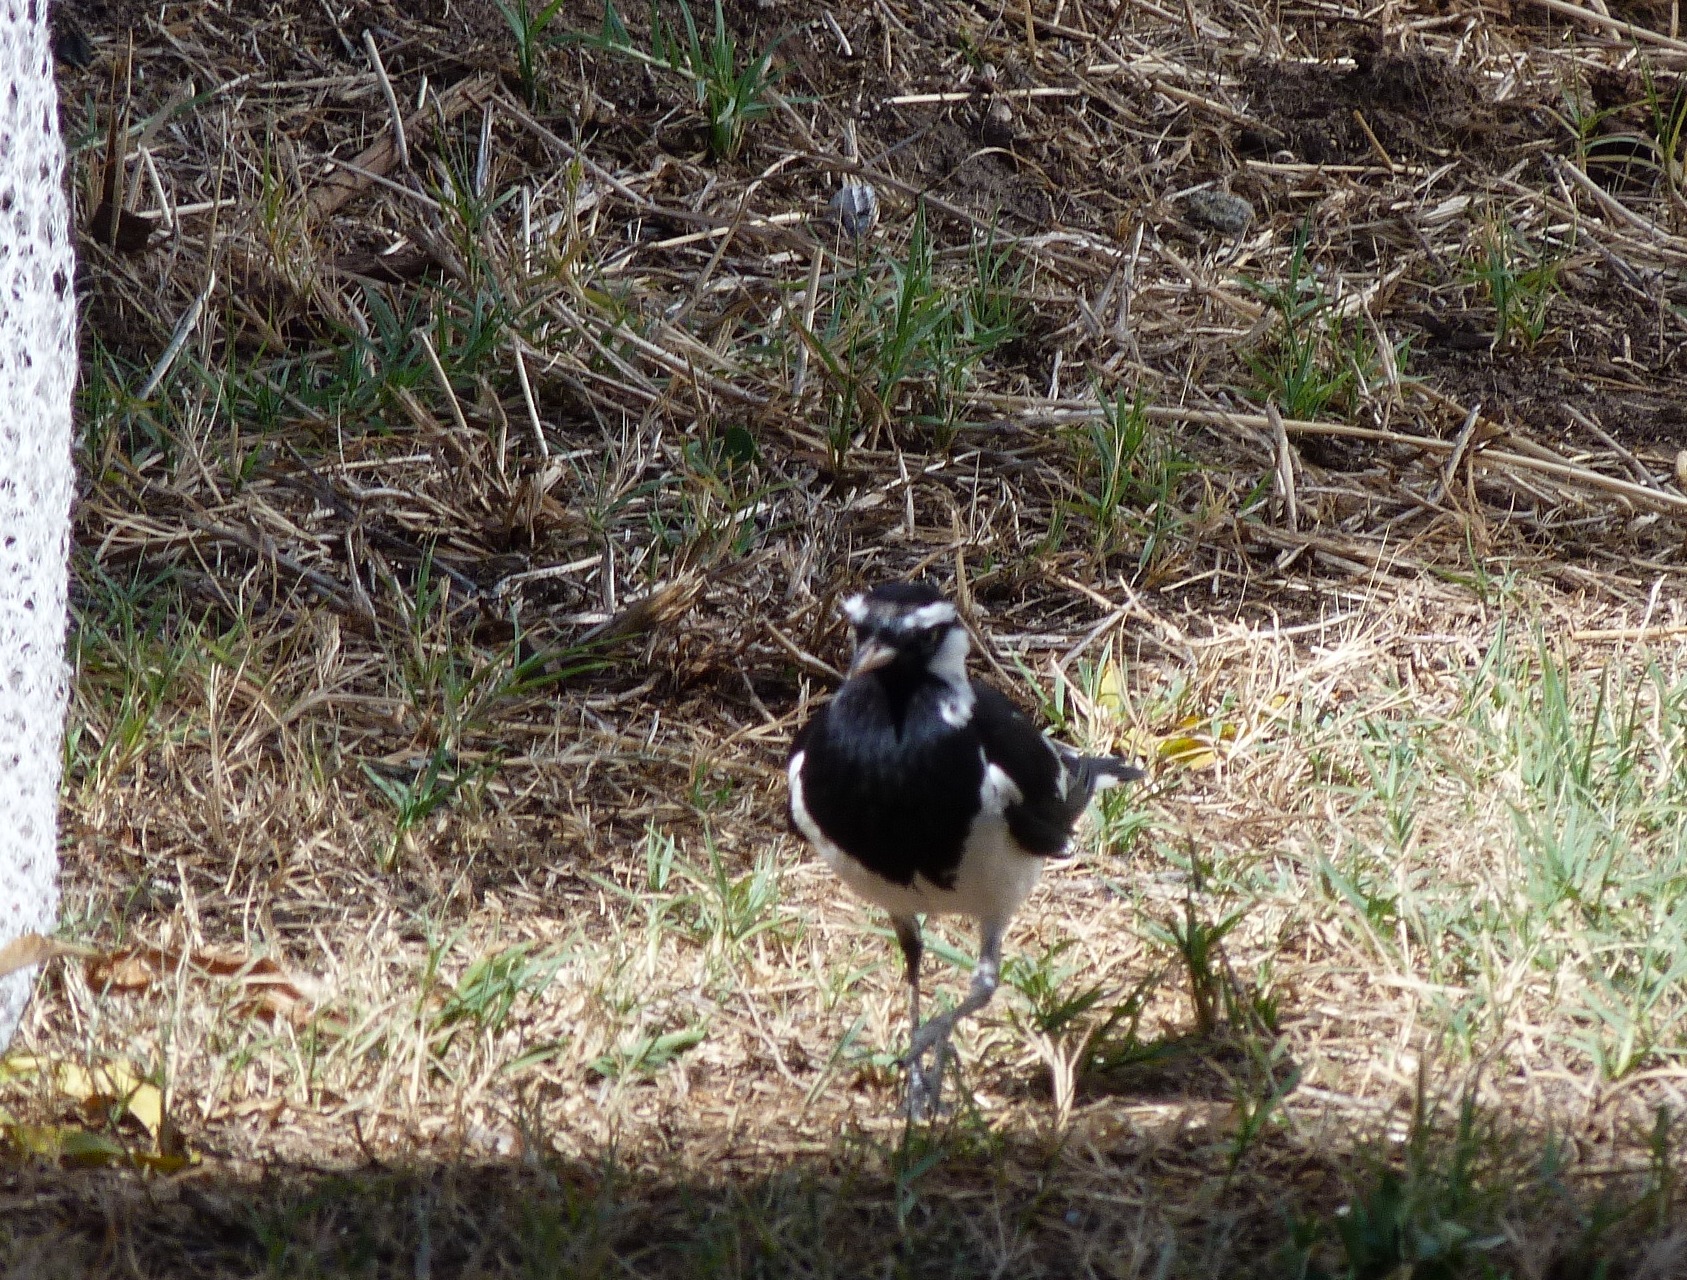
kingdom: Animalia
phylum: Chordata
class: Aves
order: Passeriformes
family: Monarchidae
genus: Grallina
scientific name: Grallina cyanoleuca
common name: Magpie-lark
